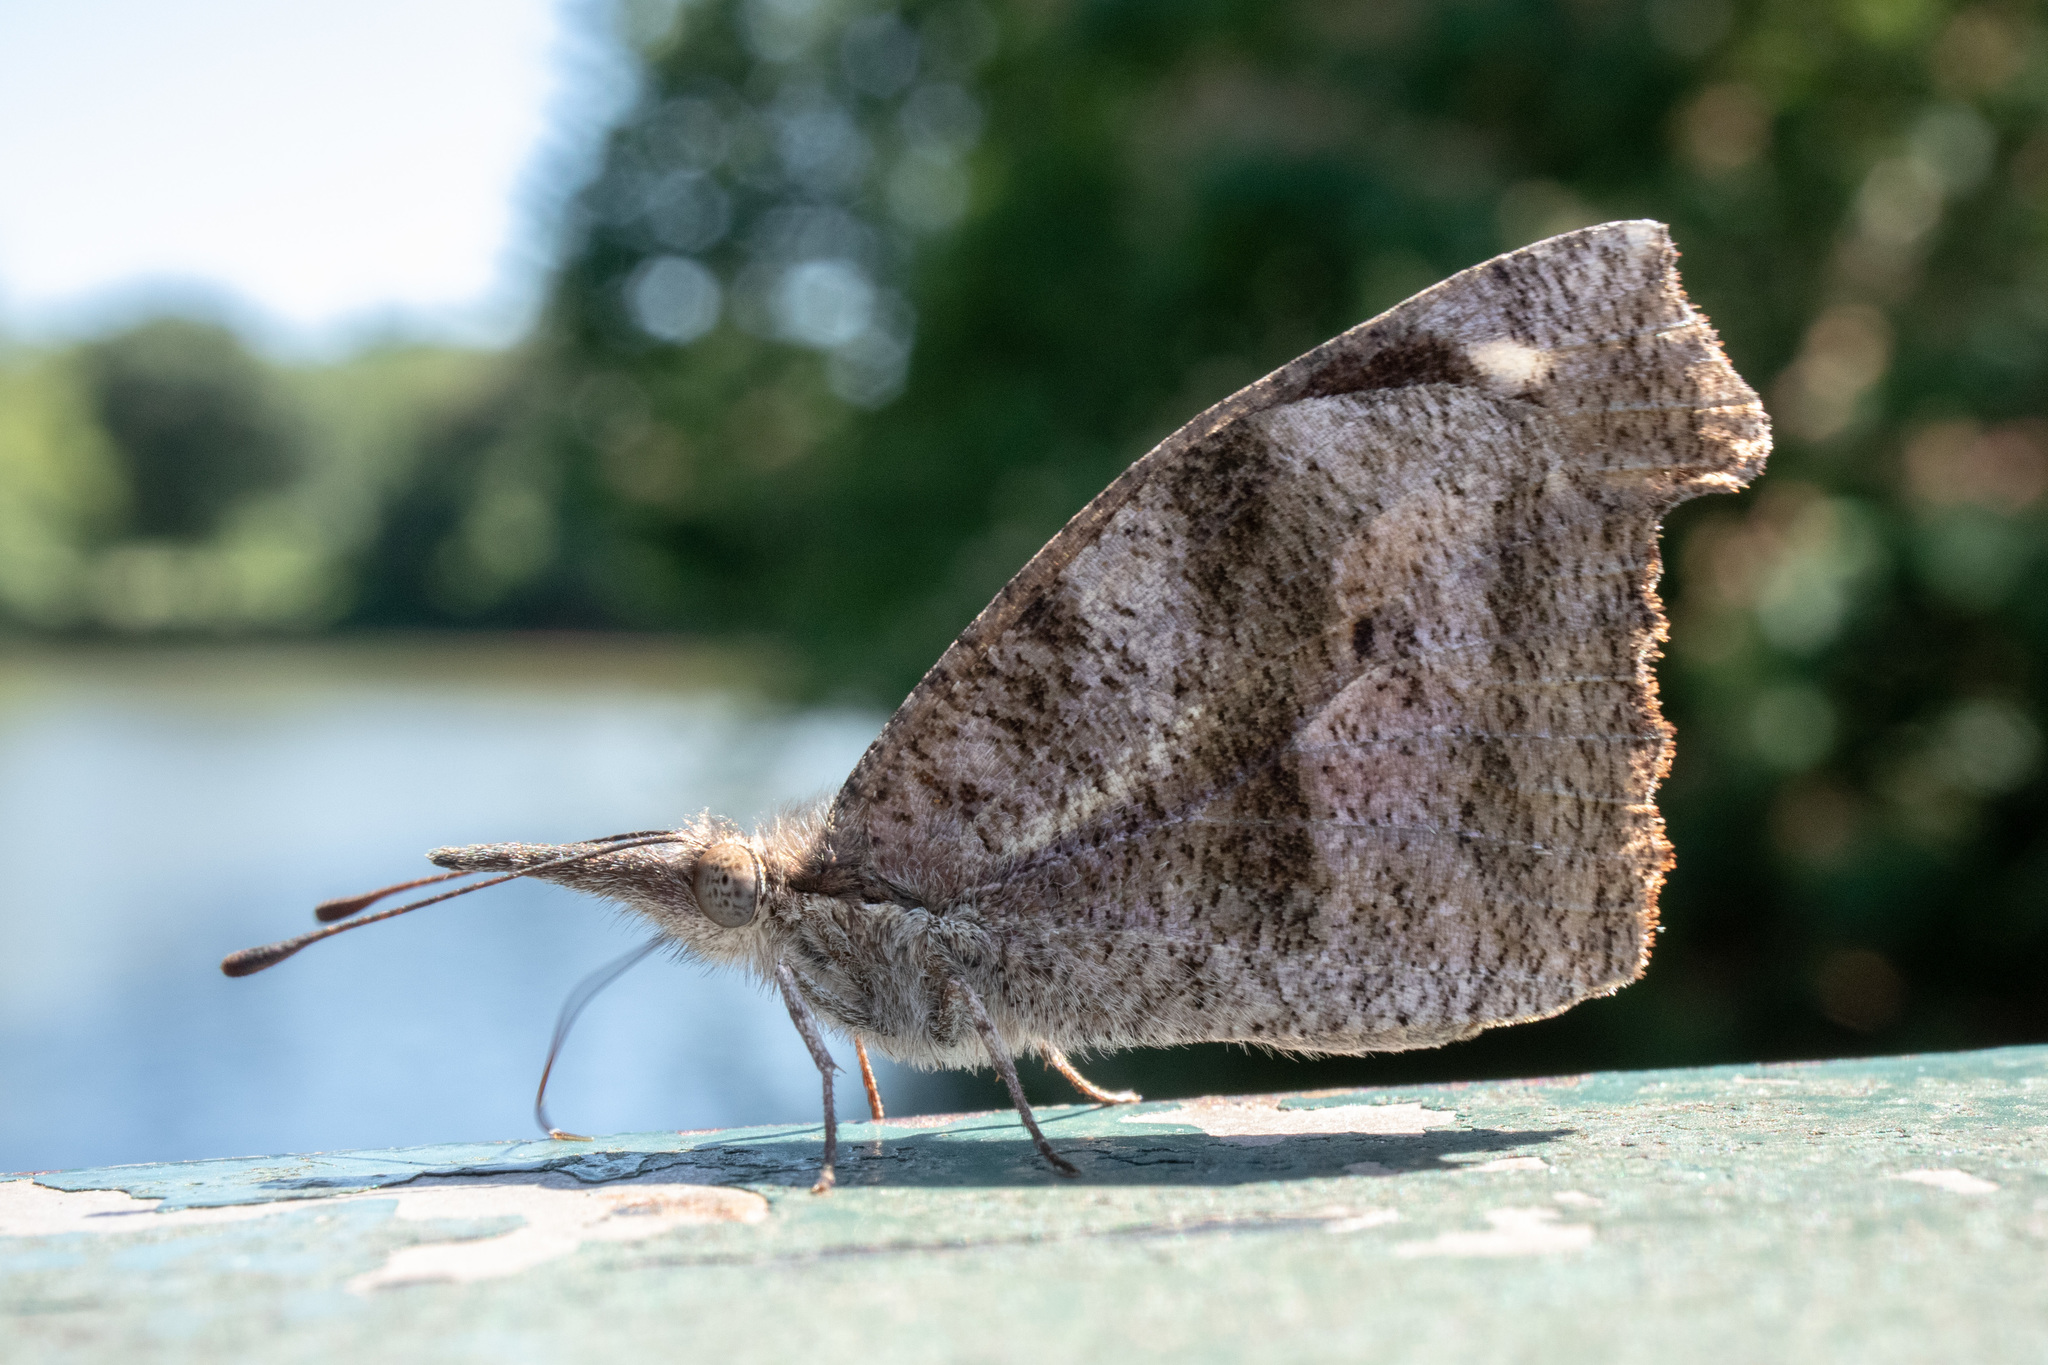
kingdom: Animalia
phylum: Arthropoda
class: Insecta
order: Lepidoptera
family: Nymphalidae
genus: Libytheana
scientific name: Libytheana carinenta
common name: American snout
